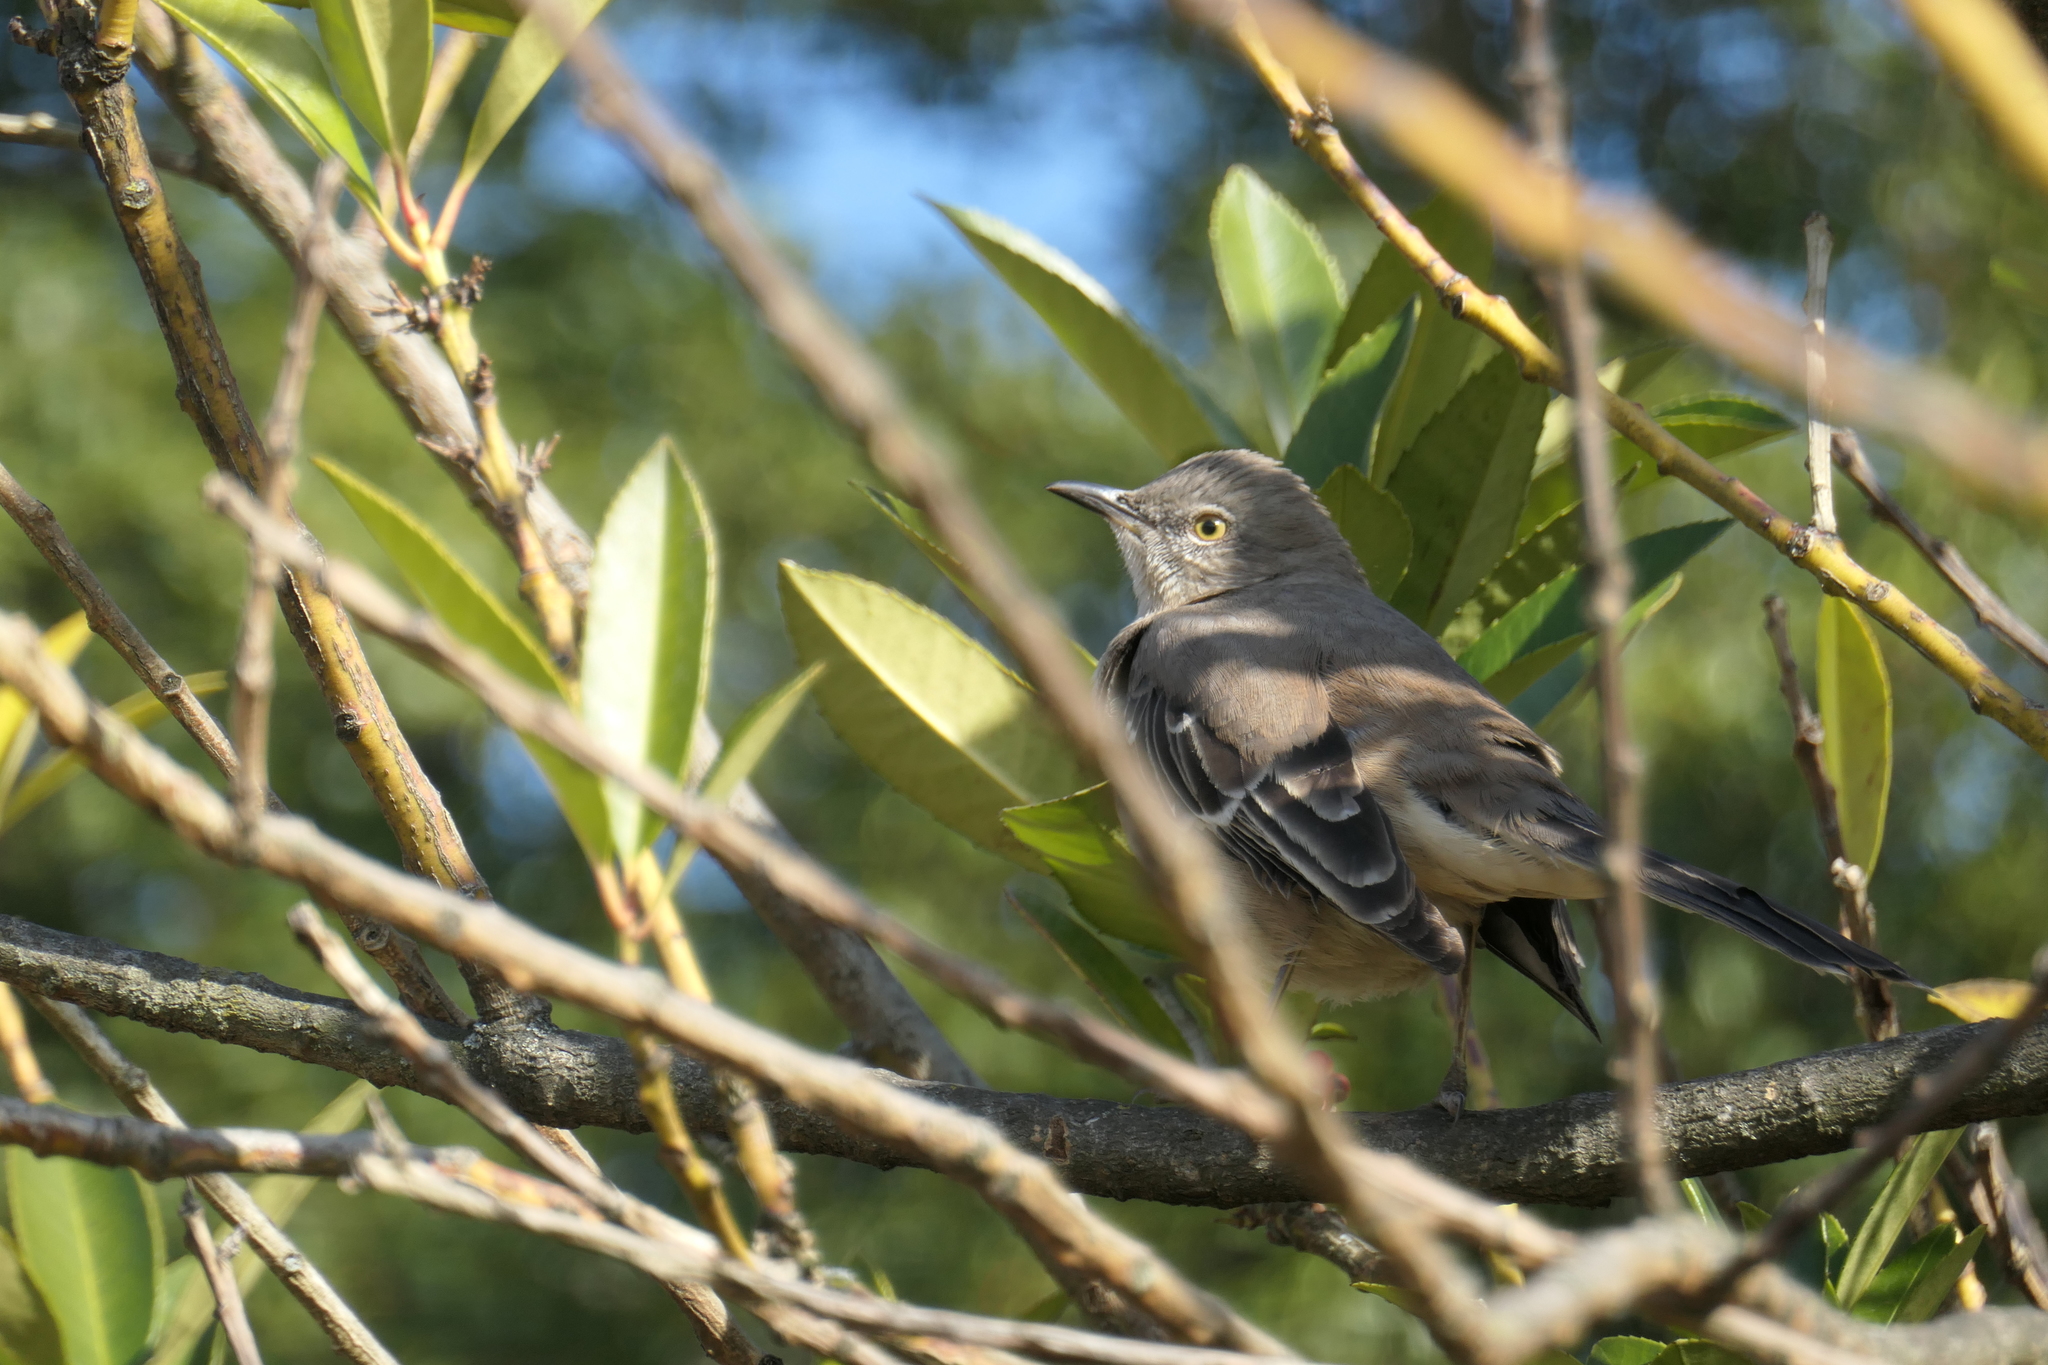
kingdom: Animalia
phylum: Chordata
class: Aves
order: Passeriformes
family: Mimidae
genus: Mimus
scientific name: Mimus polyglottos
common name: Northern mockingbird
